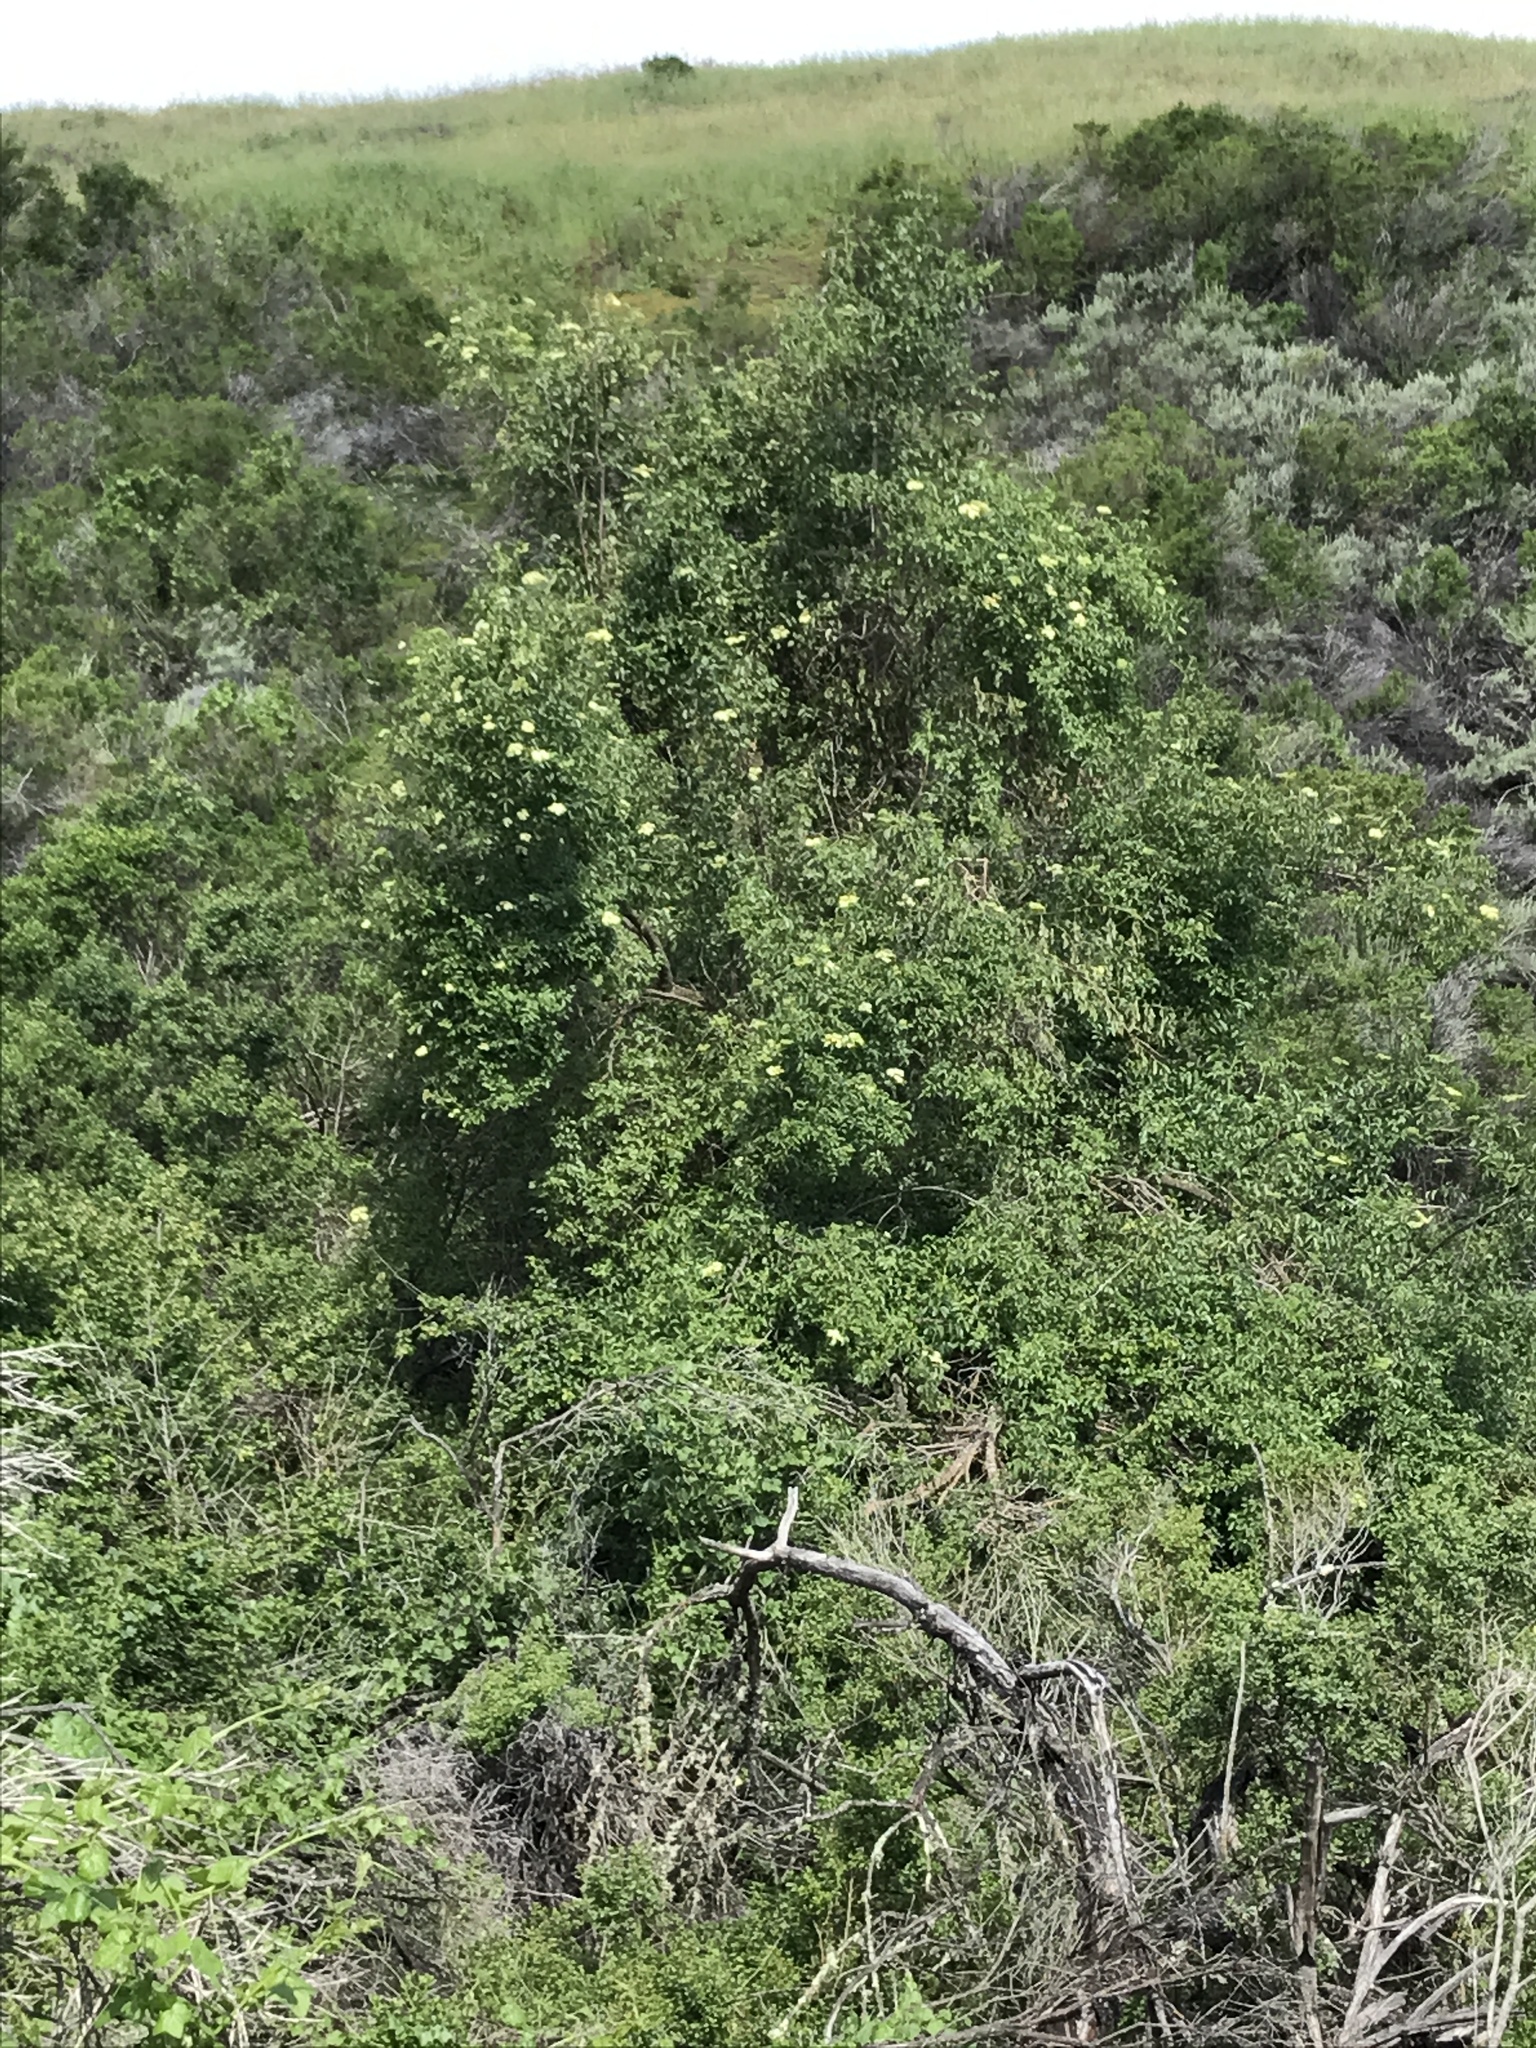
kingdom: Plantae
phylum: Tracheophyta
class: Magnoliopsida
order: Dipsacales
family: Viburnaceae
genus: Sambucus
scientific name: Sambucus cerulea
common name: Blue elder
